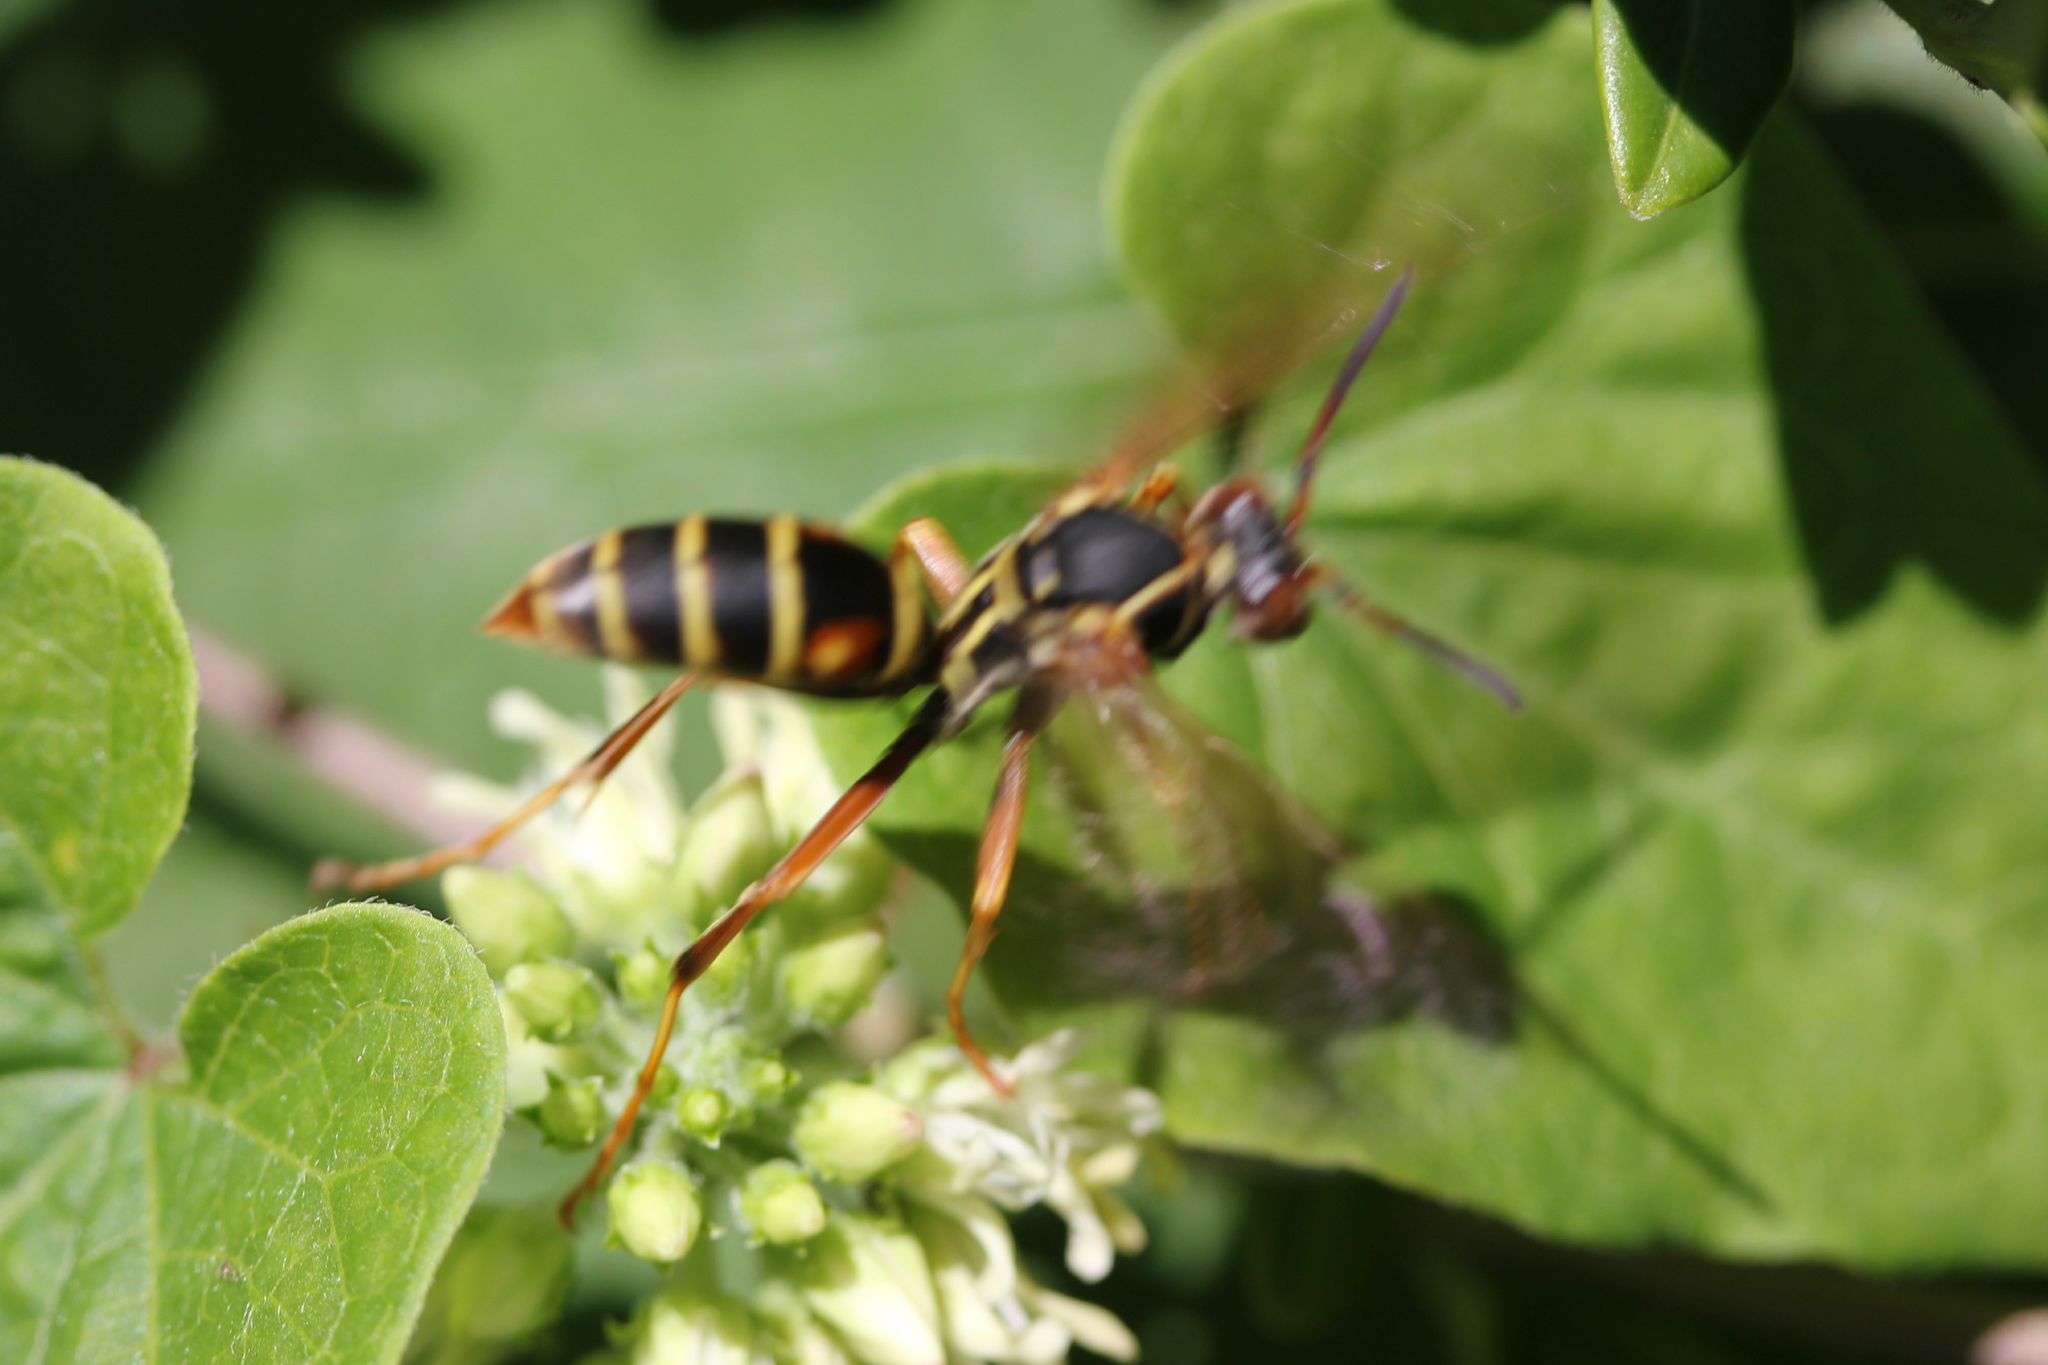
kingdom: Animalia
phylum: Arthropoda
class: Insecta
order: Hymenoptera
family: Eumenidae
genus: Polistes
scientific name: Polistes fuscatus
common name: Dark paper wasp
